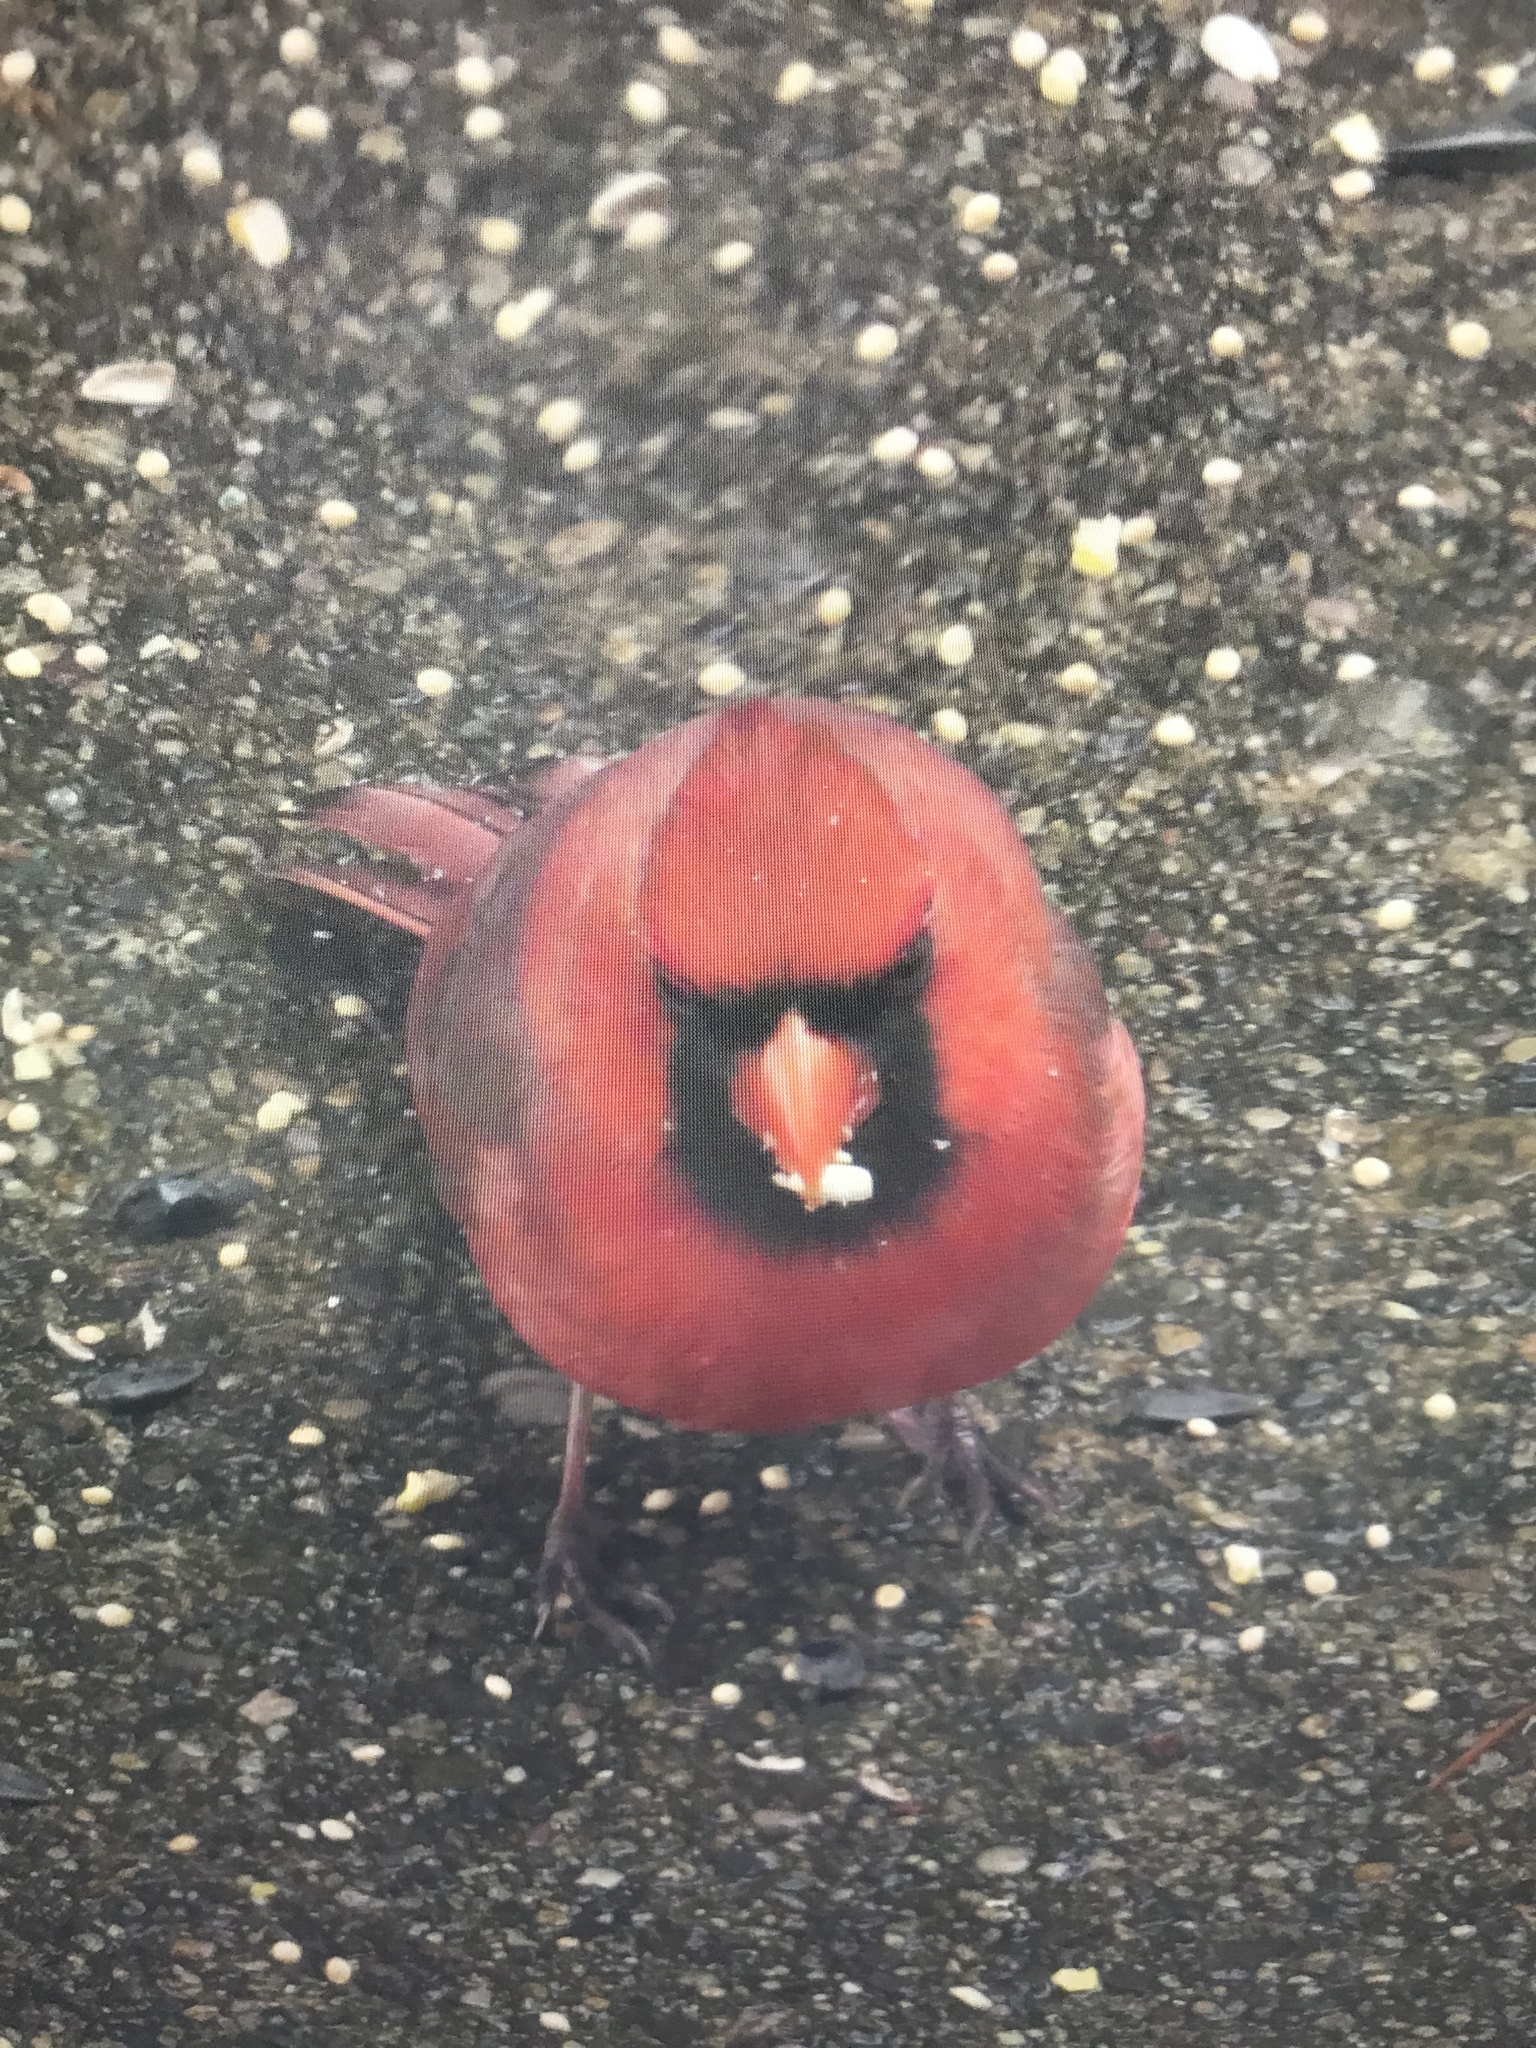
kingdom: Animalia
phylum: Chordata
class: Aves
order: Passeriformes
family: Cardinalidae
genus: Cardinalis
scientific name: Cardinalis cardinalis
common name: Northern cardinal
